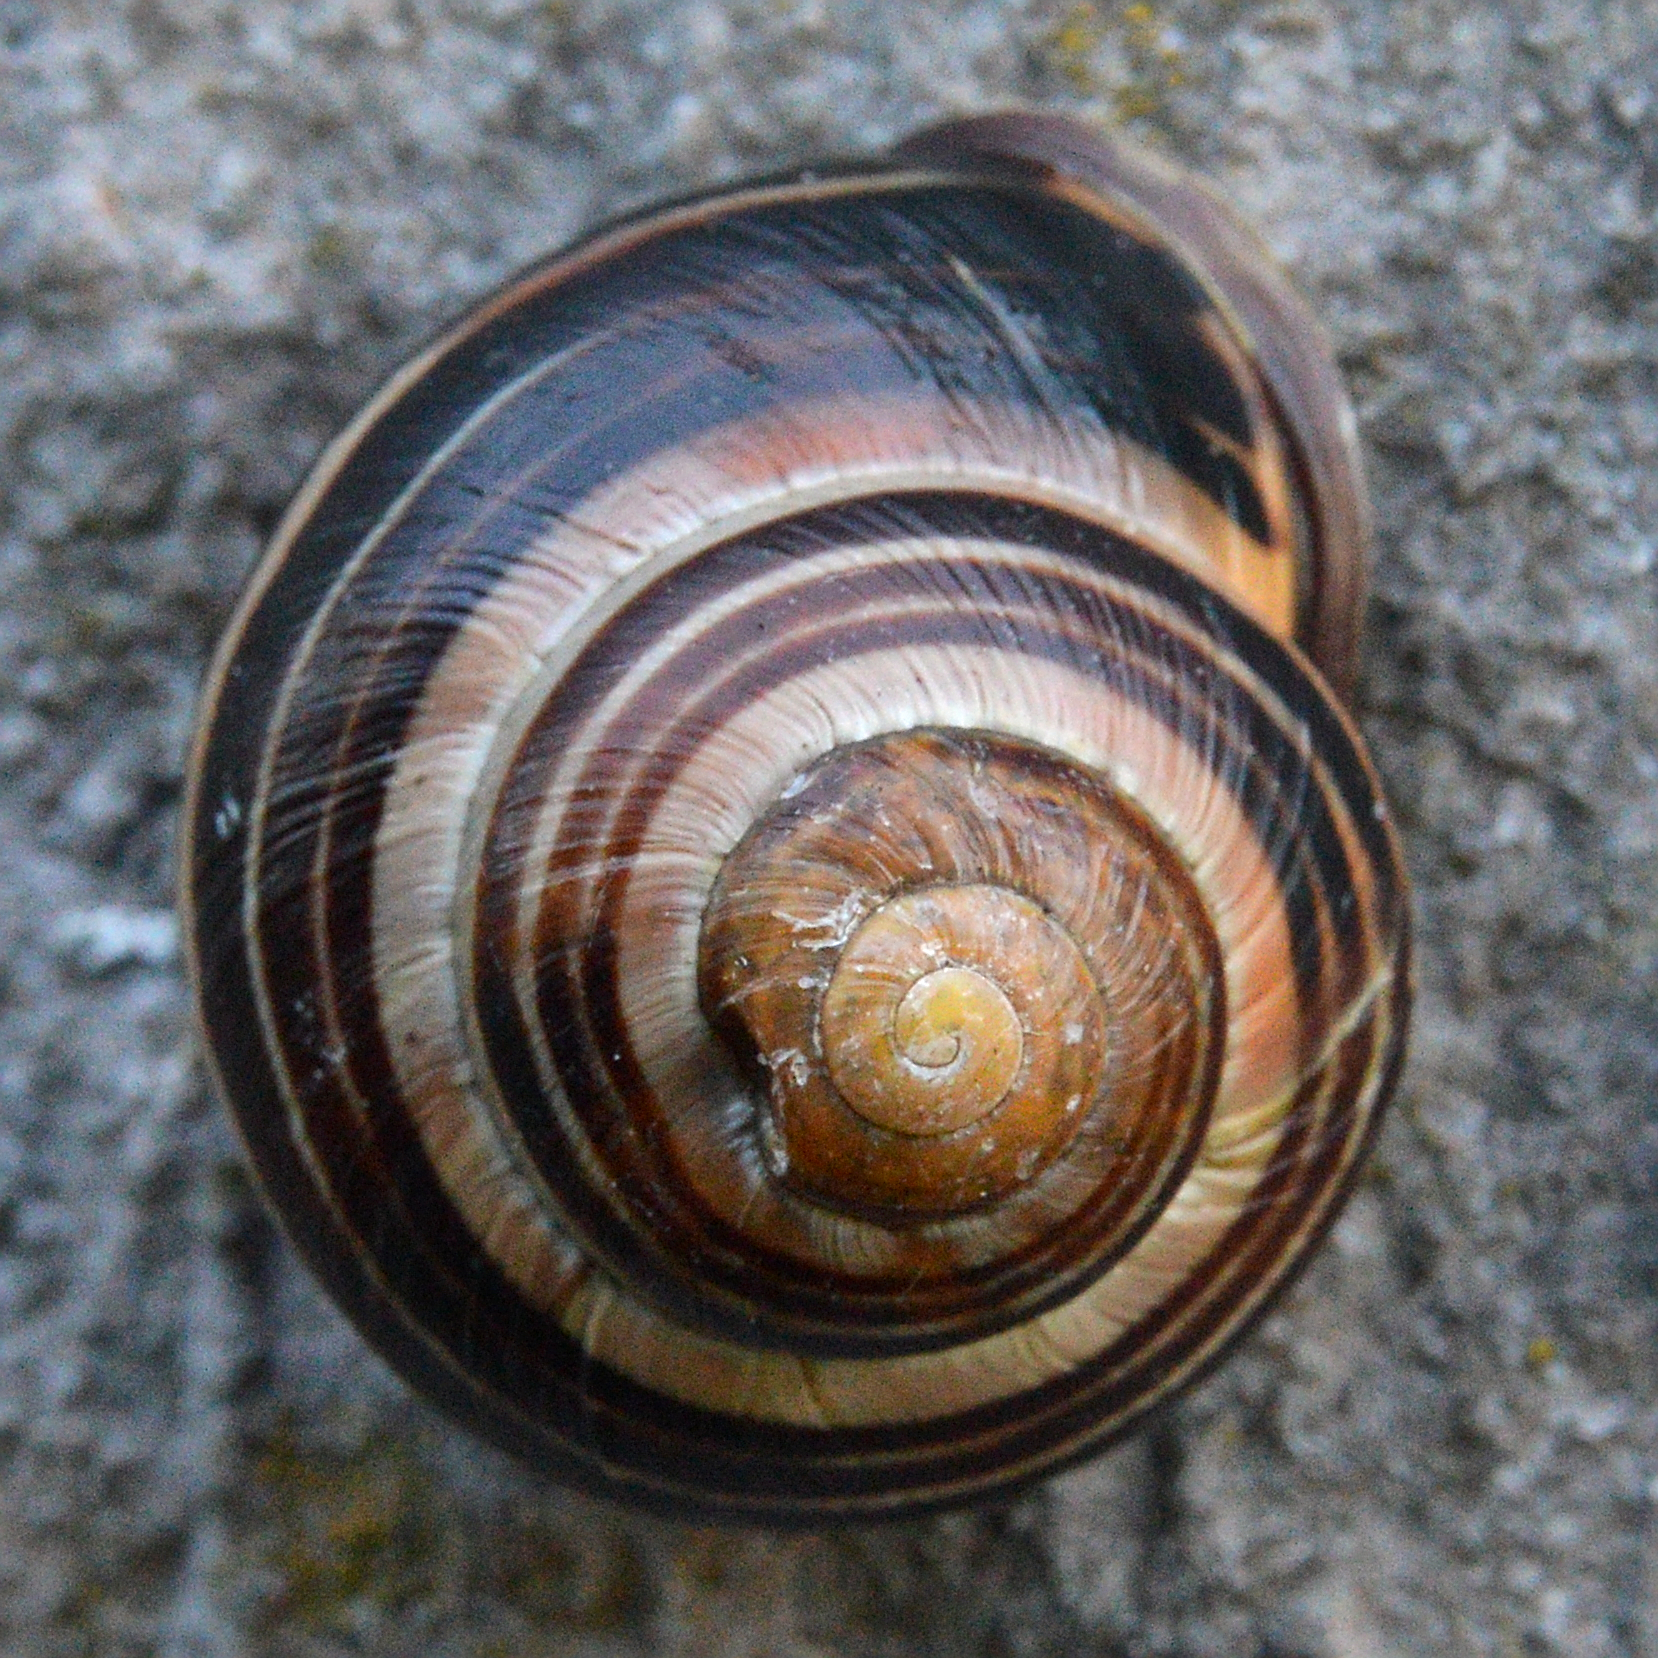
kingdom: Animalia
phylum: Mollusca
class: Gastropoda
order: Stylommatophora
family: Helicidae
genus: Cepaea
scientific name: Cepaea nemoralis
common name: Grovesnail
